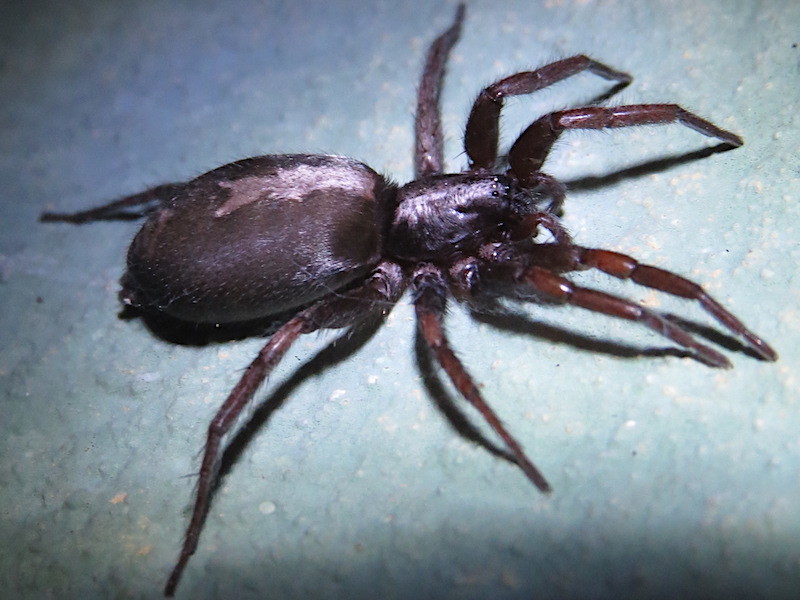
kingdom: Animalia
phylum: Arthropoda
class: Arachnida
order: Araneae
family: Gnaphosidae
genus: Herpyllus
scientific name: Herpyllus ecclesiasticus
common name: Eastern parson spider
